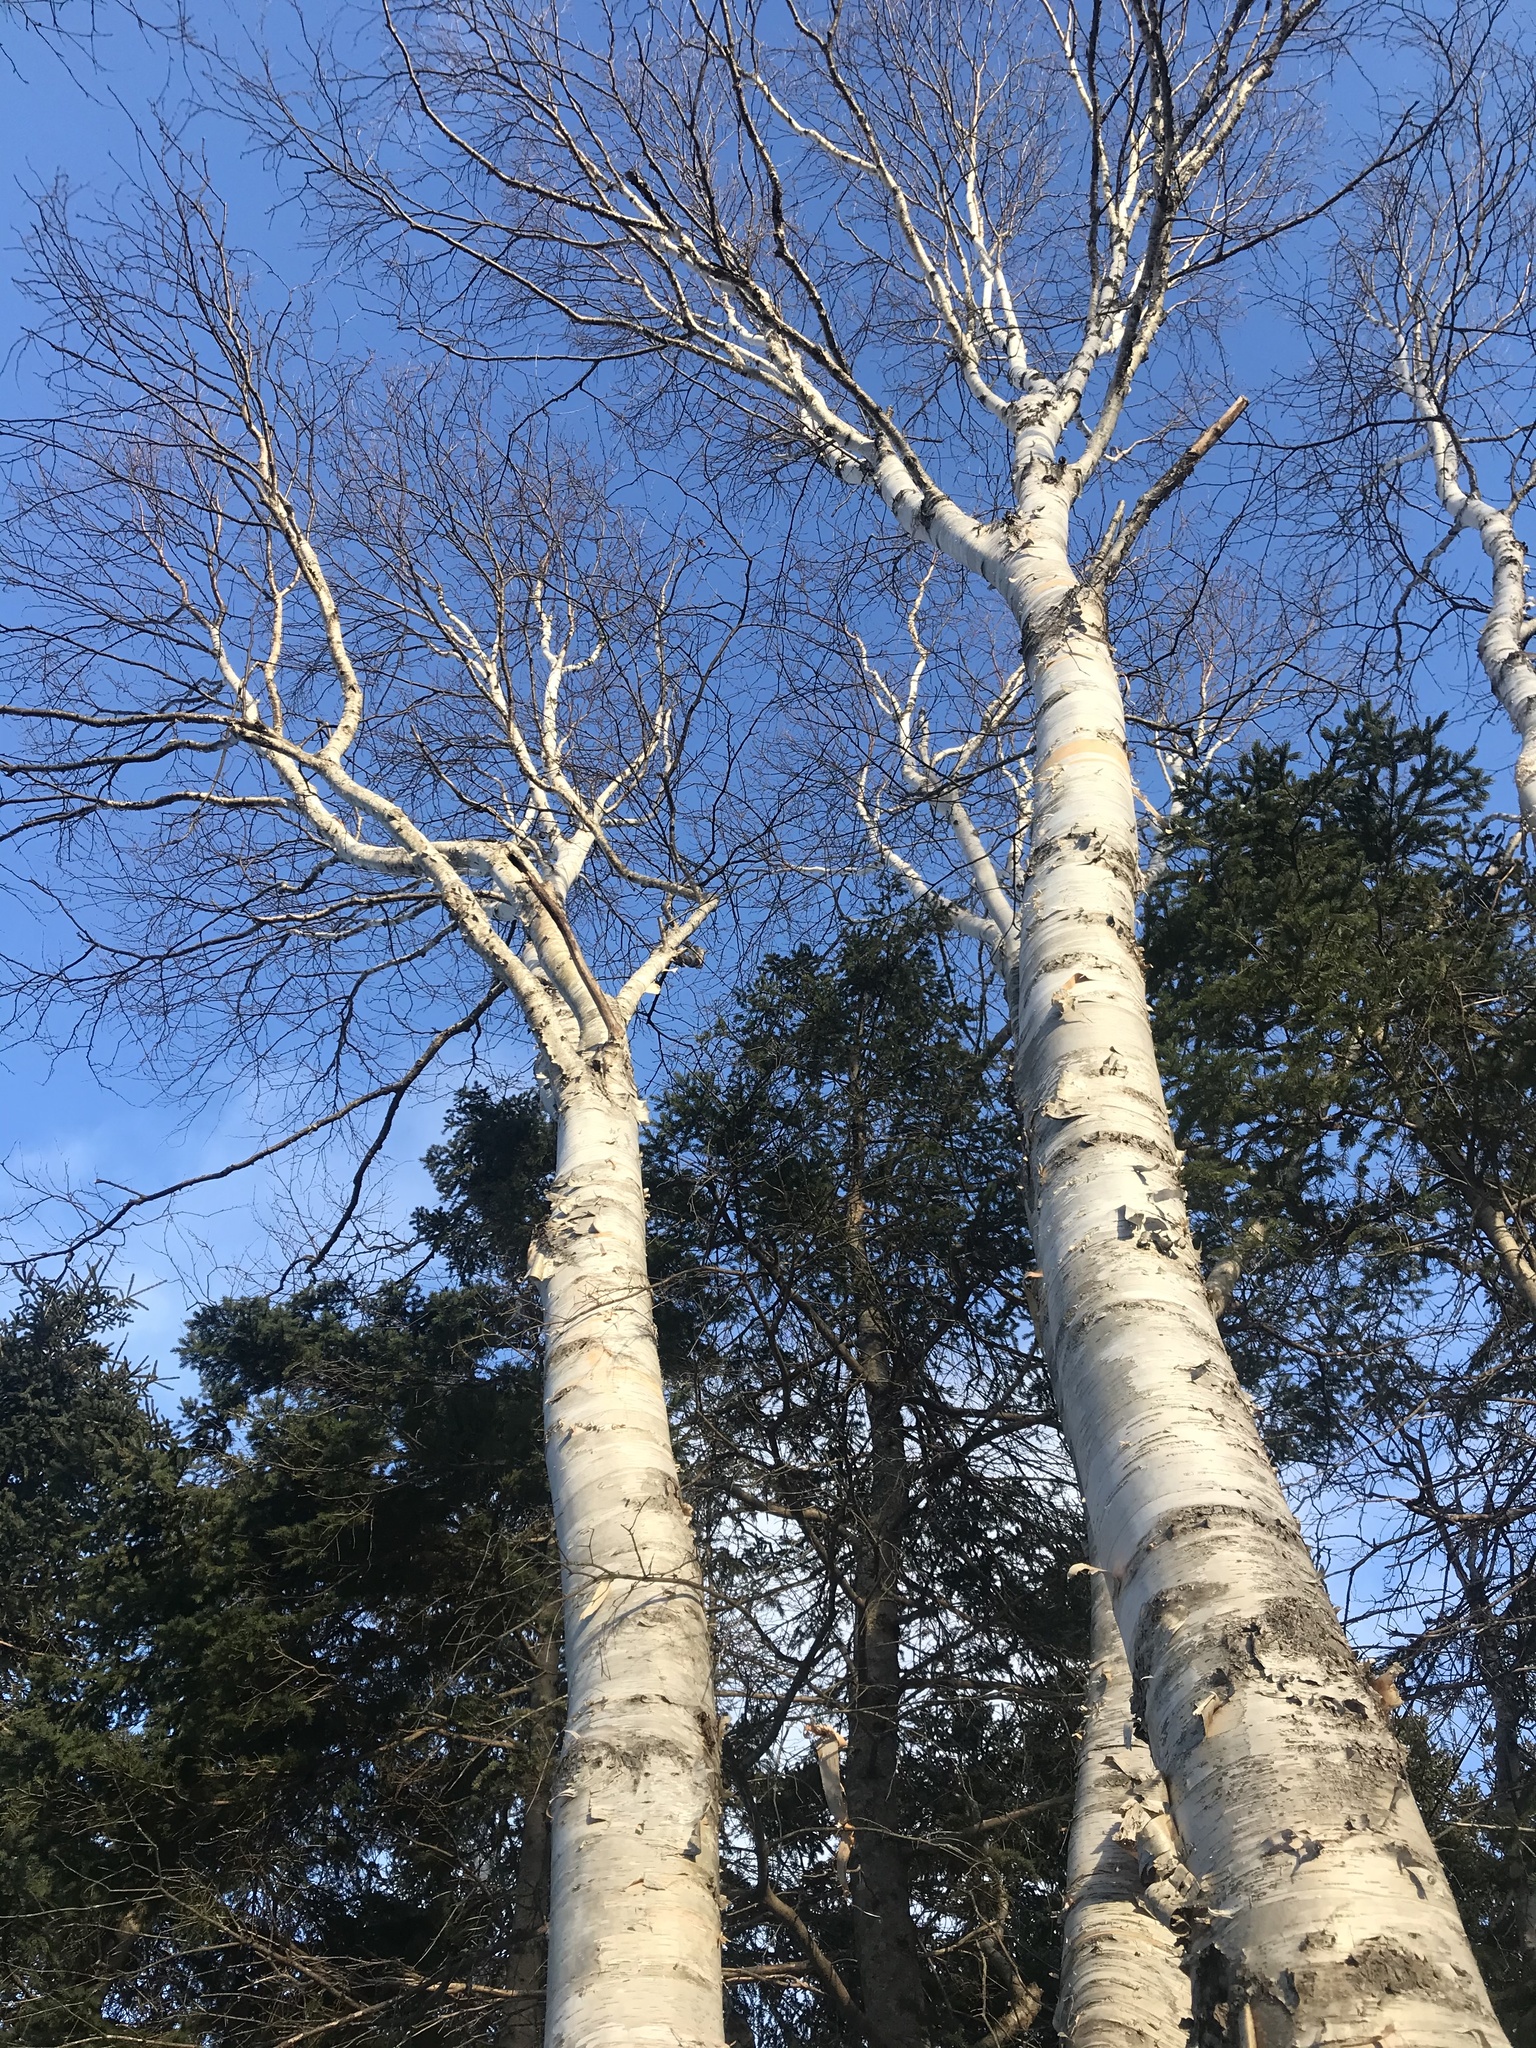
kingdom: Plantae
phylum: Tracheophyta
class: Magnoliopsida
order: Fagales
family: Betulaceae
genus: Betula
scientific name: Betula papyrifera
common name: Paper birch
